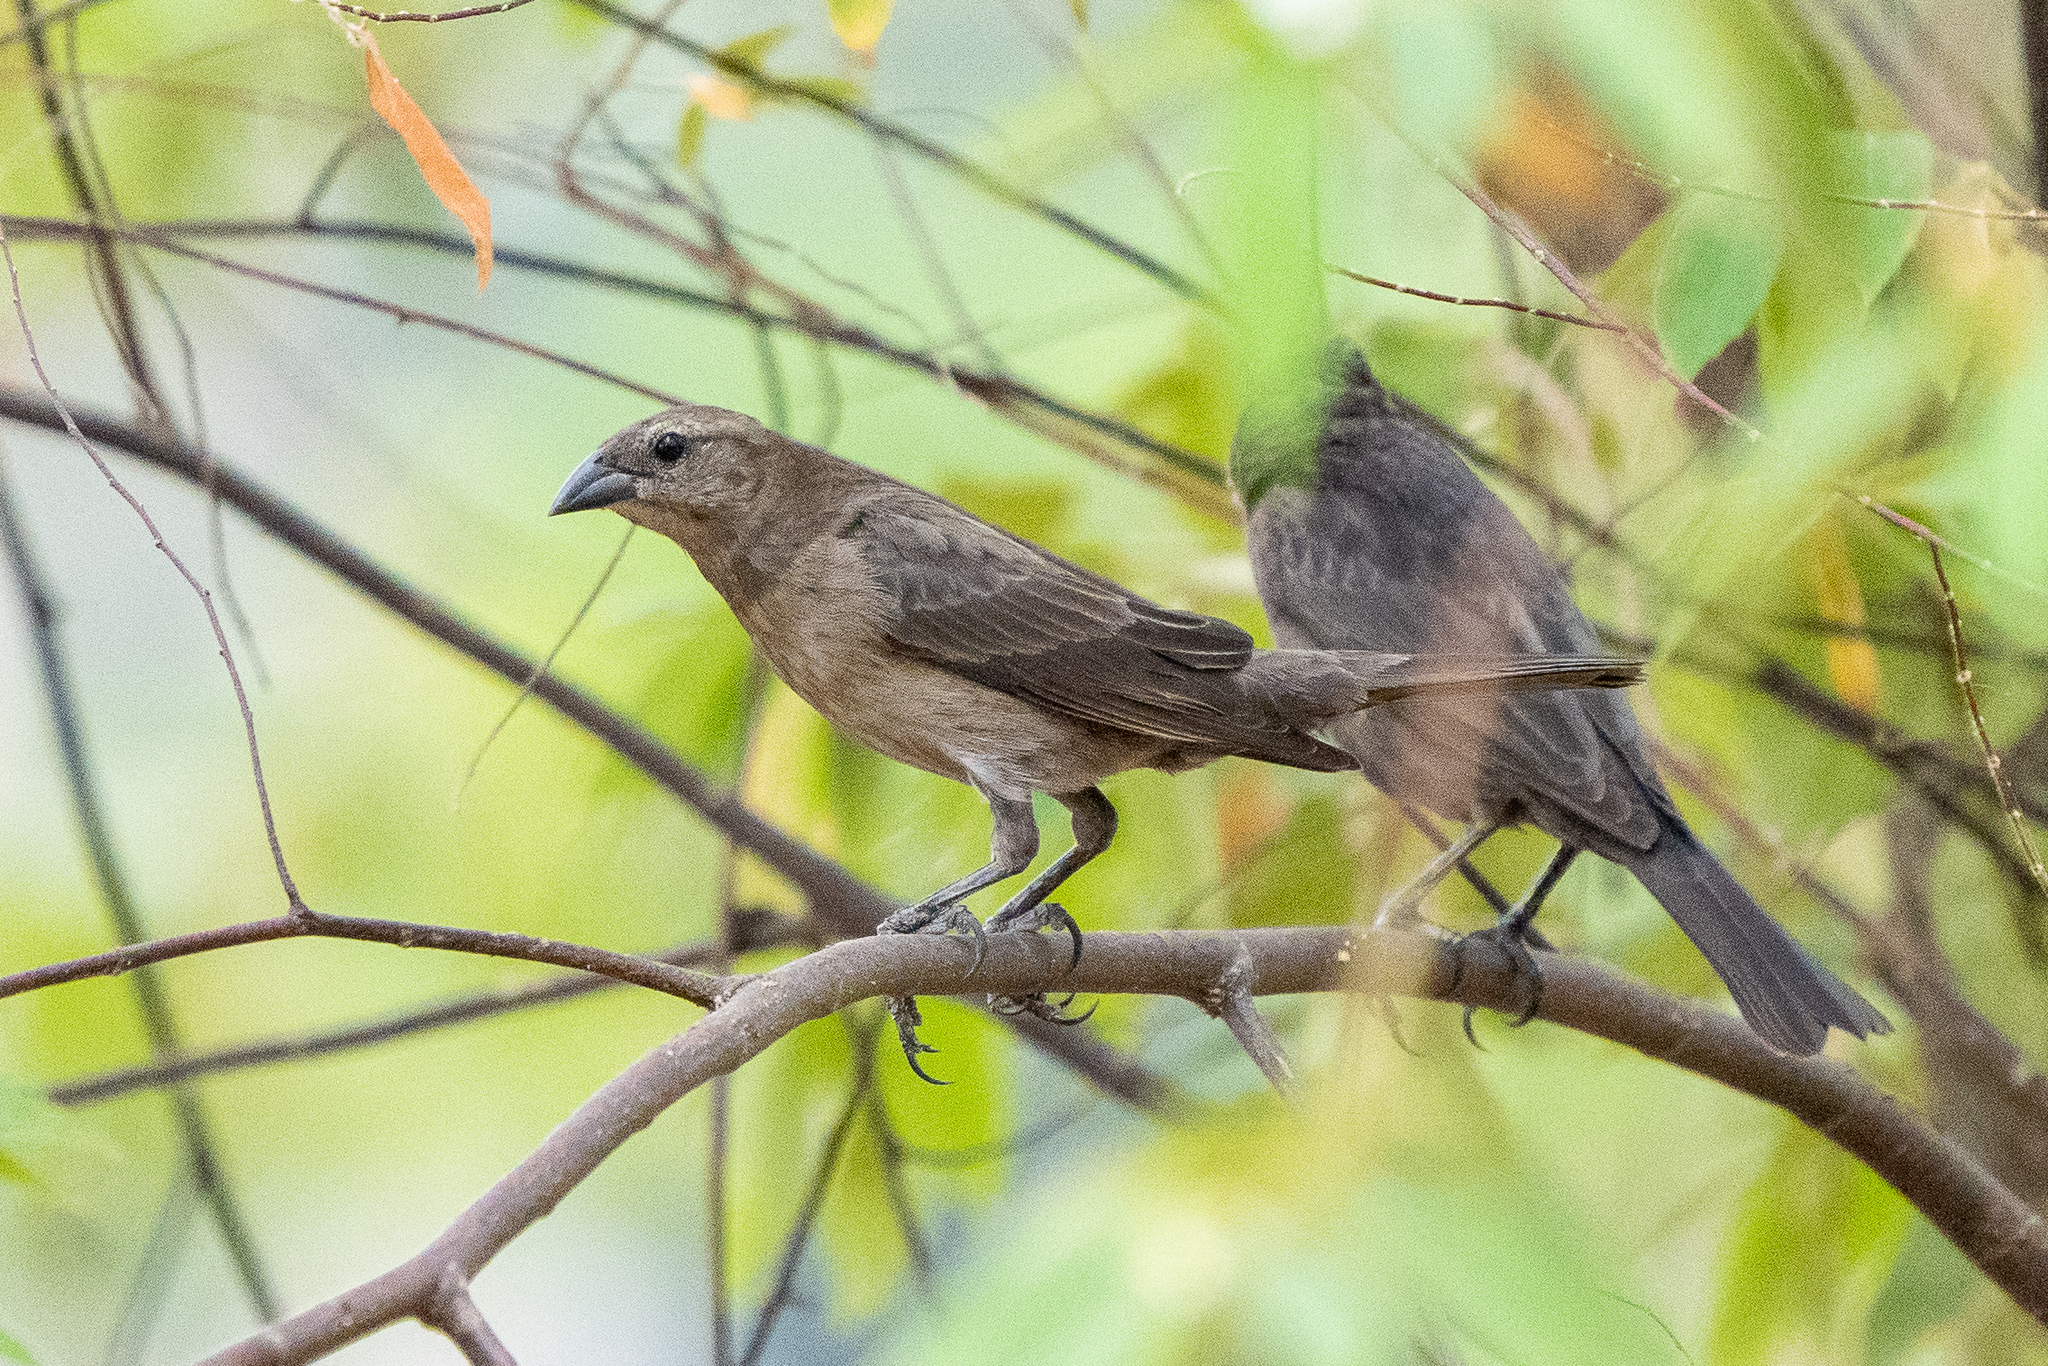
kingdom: Animalia
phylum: Chordata
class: Aves
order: Passeriformes
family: Icteridae
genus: Molothrus
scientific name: Molothrus bonariensis
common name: Shiny cowbird
